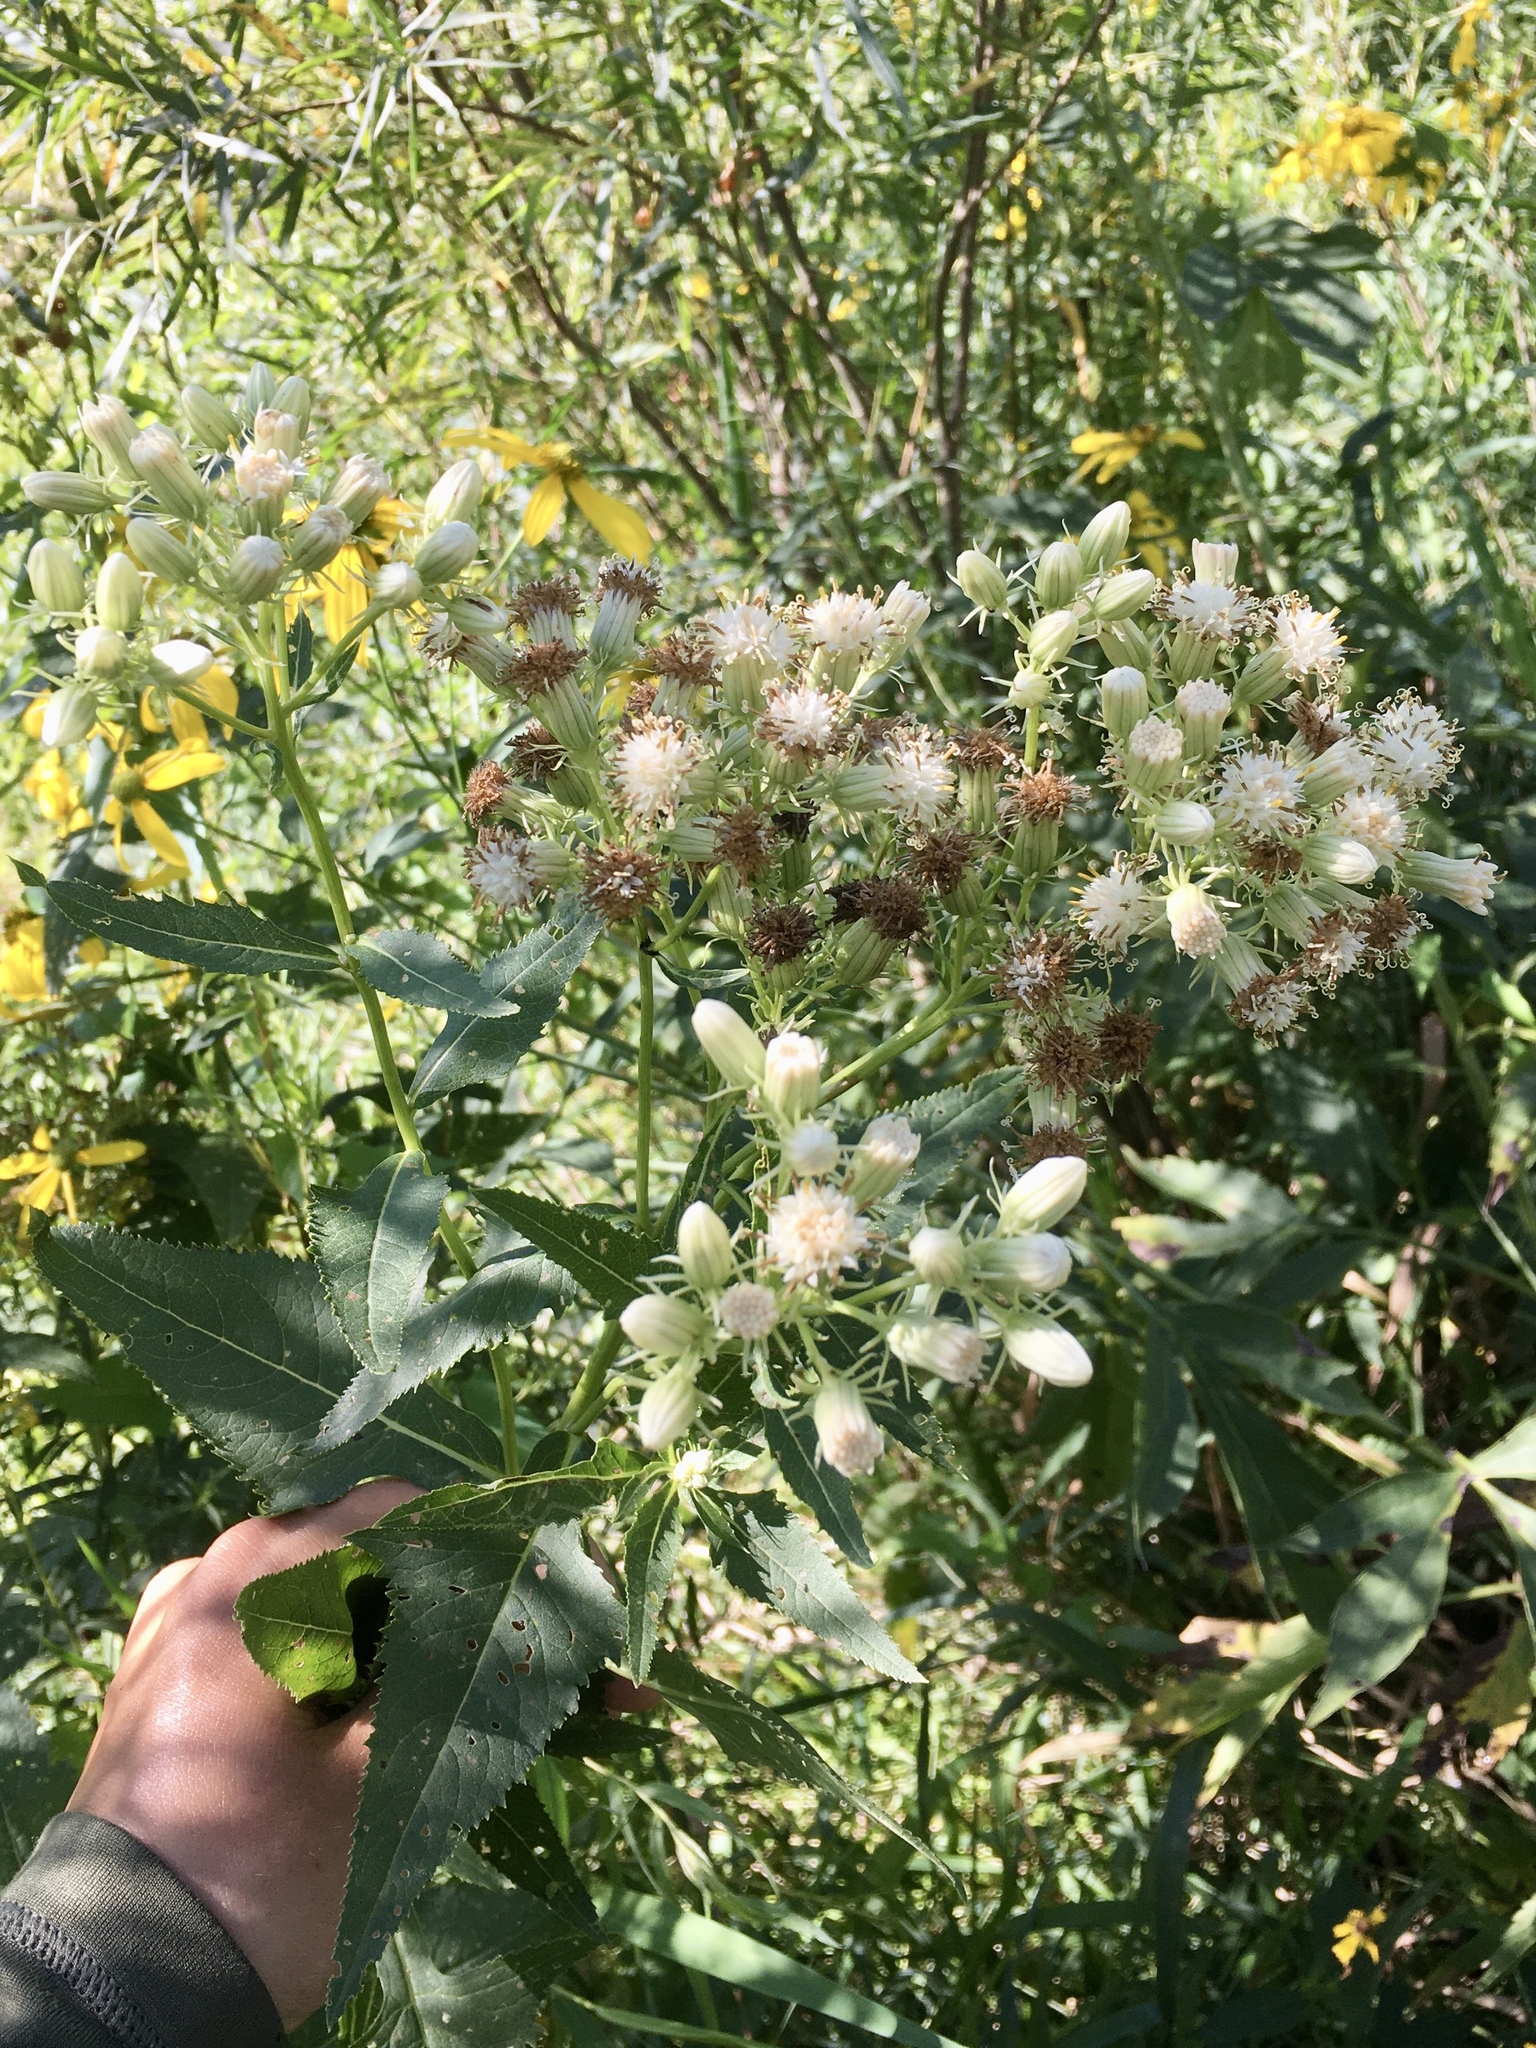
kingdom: Plantae
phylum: Tracheophyta
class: Magnoliopsida
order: Asterales
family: Asteraceae
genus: Hasteola
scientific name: Hasteola suaveolens
